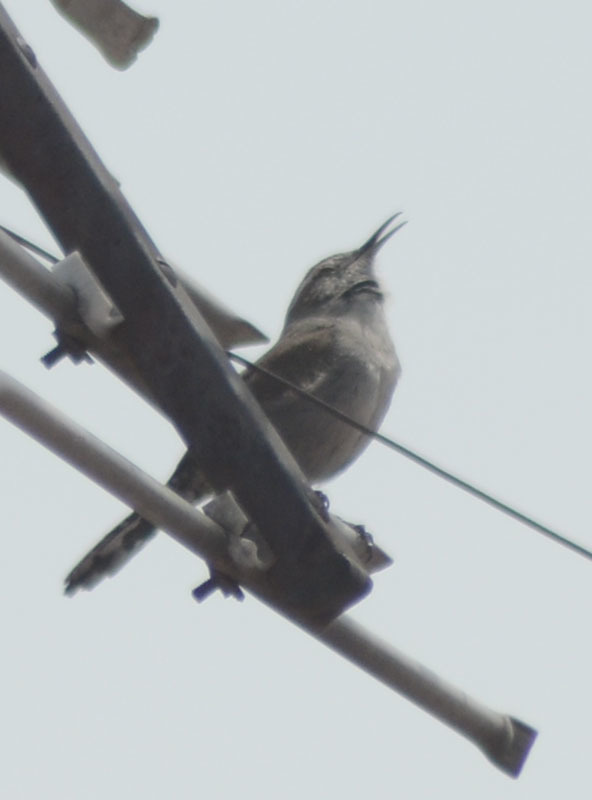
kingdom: Animalia
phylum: Chordata
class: Aves
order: Passeriformes
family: Troglodytidae
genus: Thryomanes
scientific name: Thryomanes bewickii
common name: Bewick's wren
